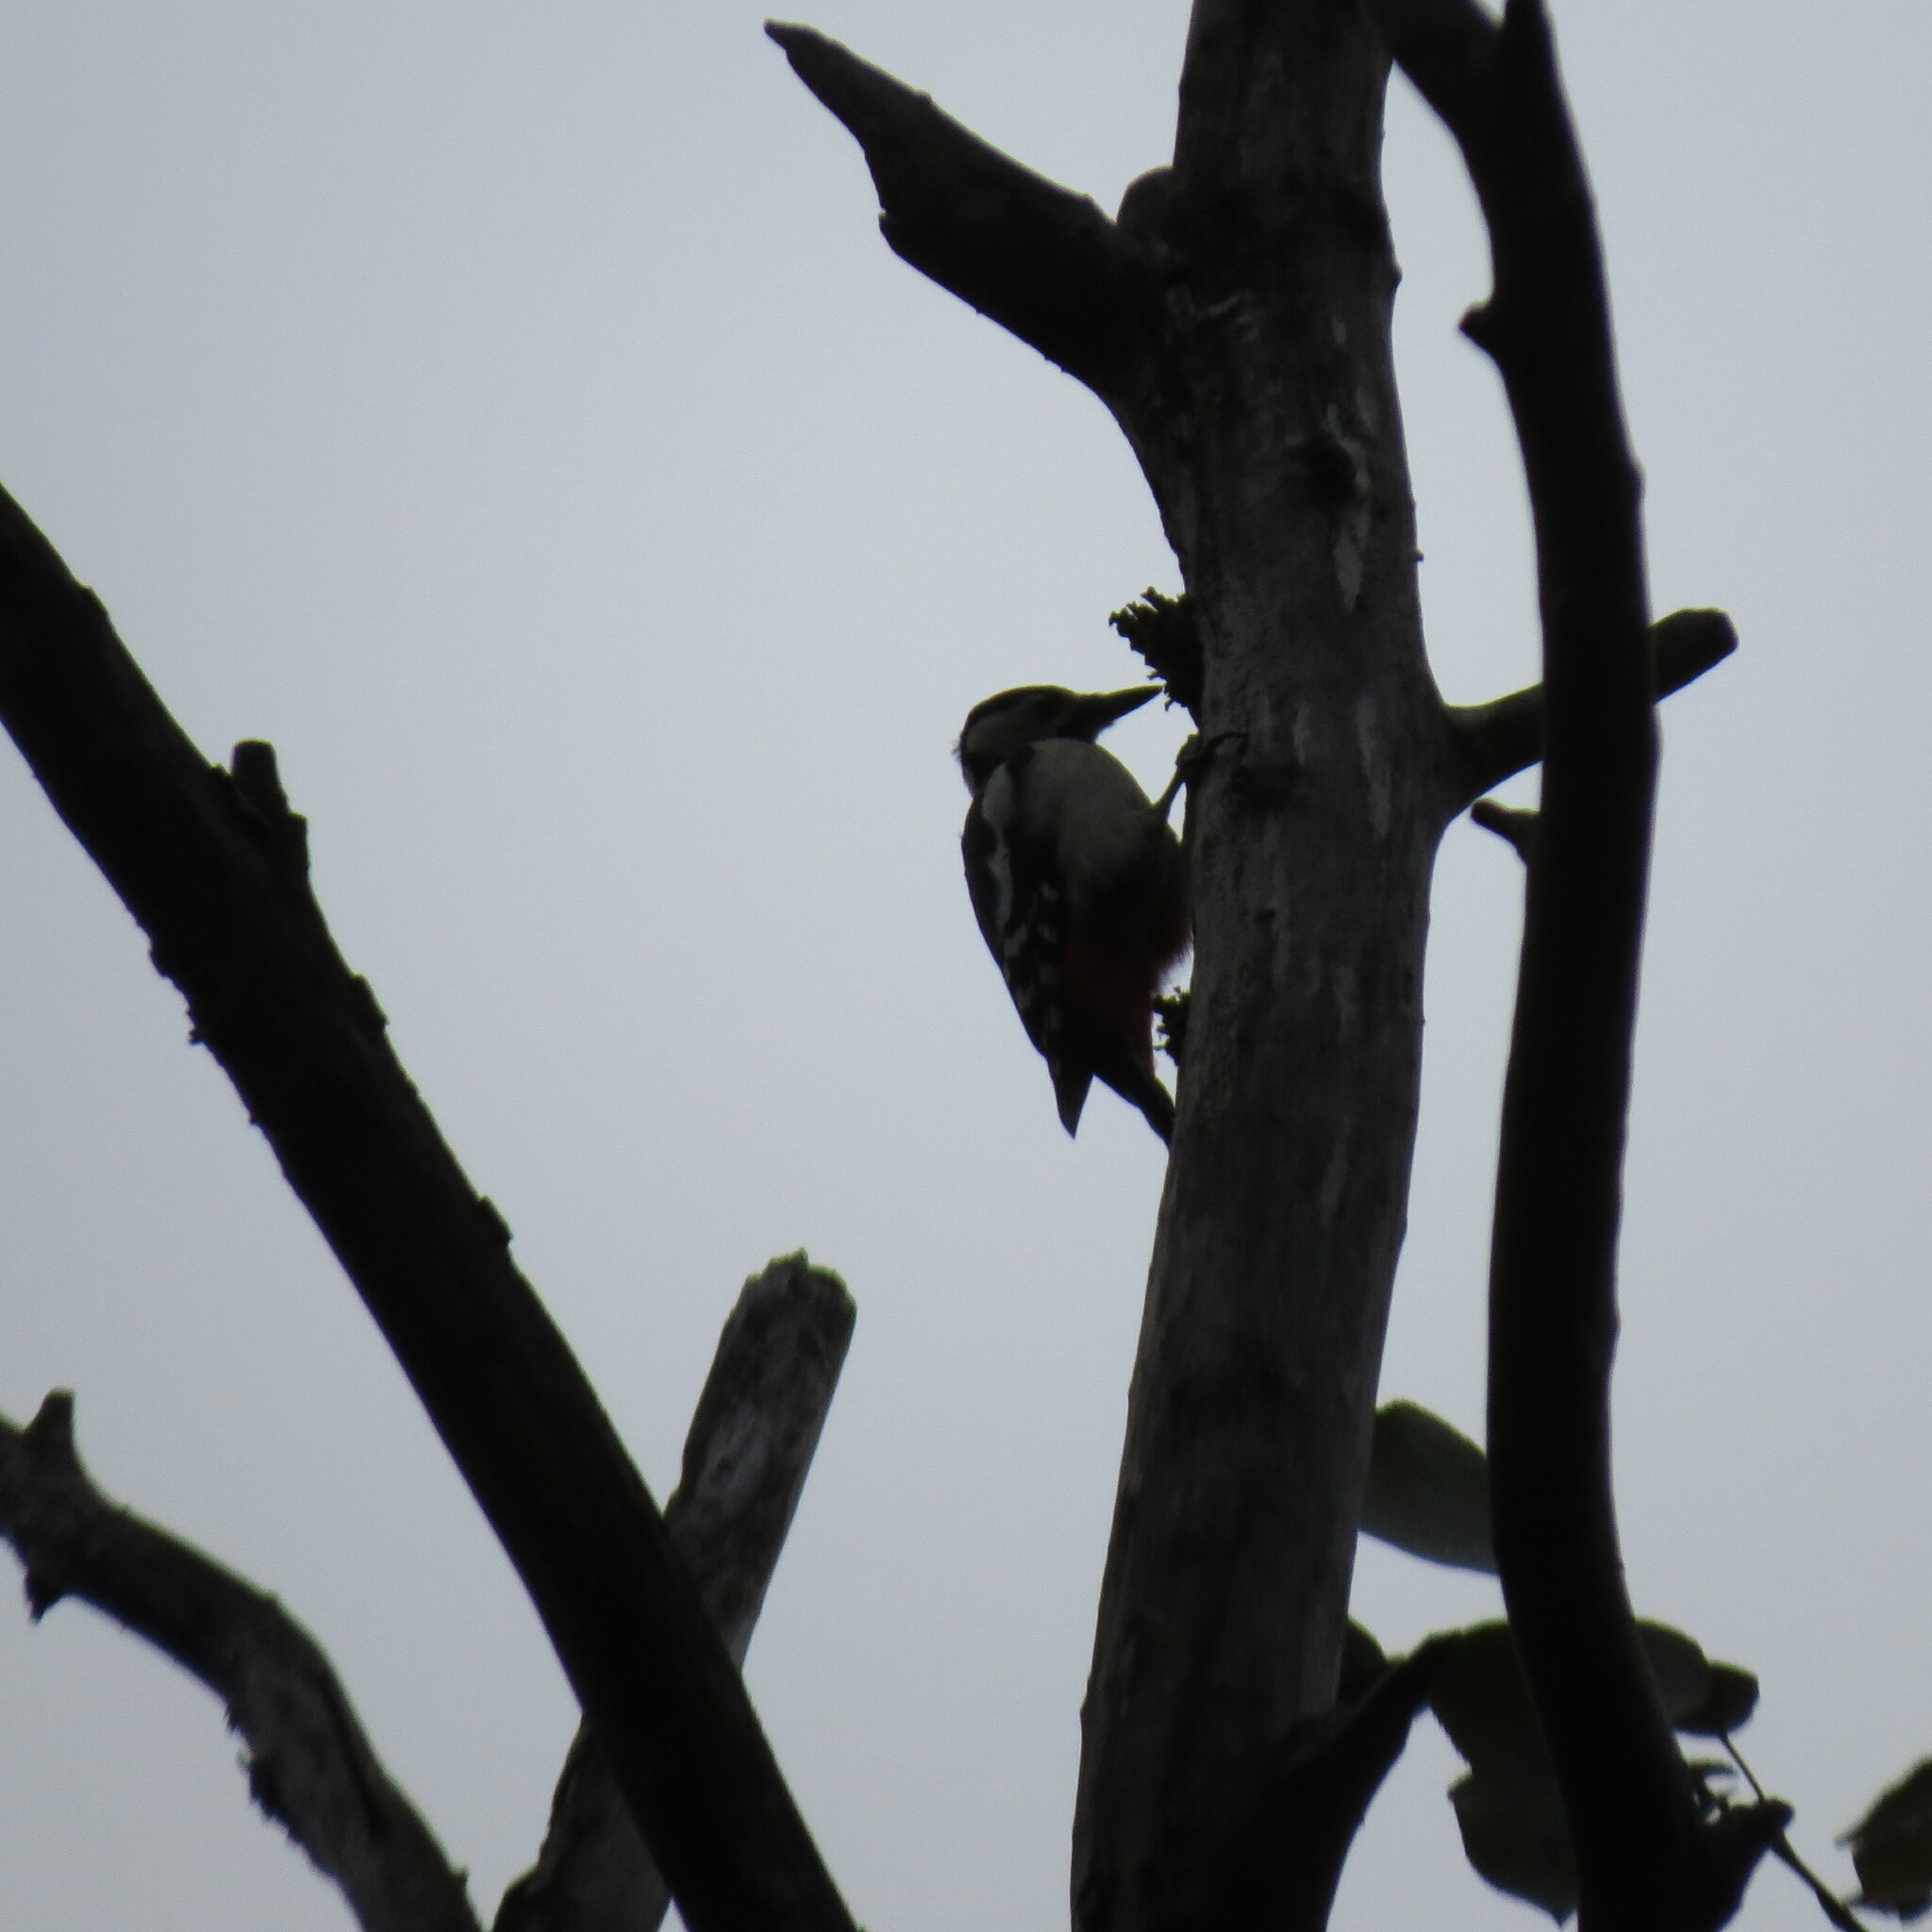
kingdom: Animalia
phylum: Chordata
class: Aves
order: Piciformes
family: Picidae
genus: Dendrocopos
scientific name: Dendrocopos major
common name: Great spotted woodpecker
